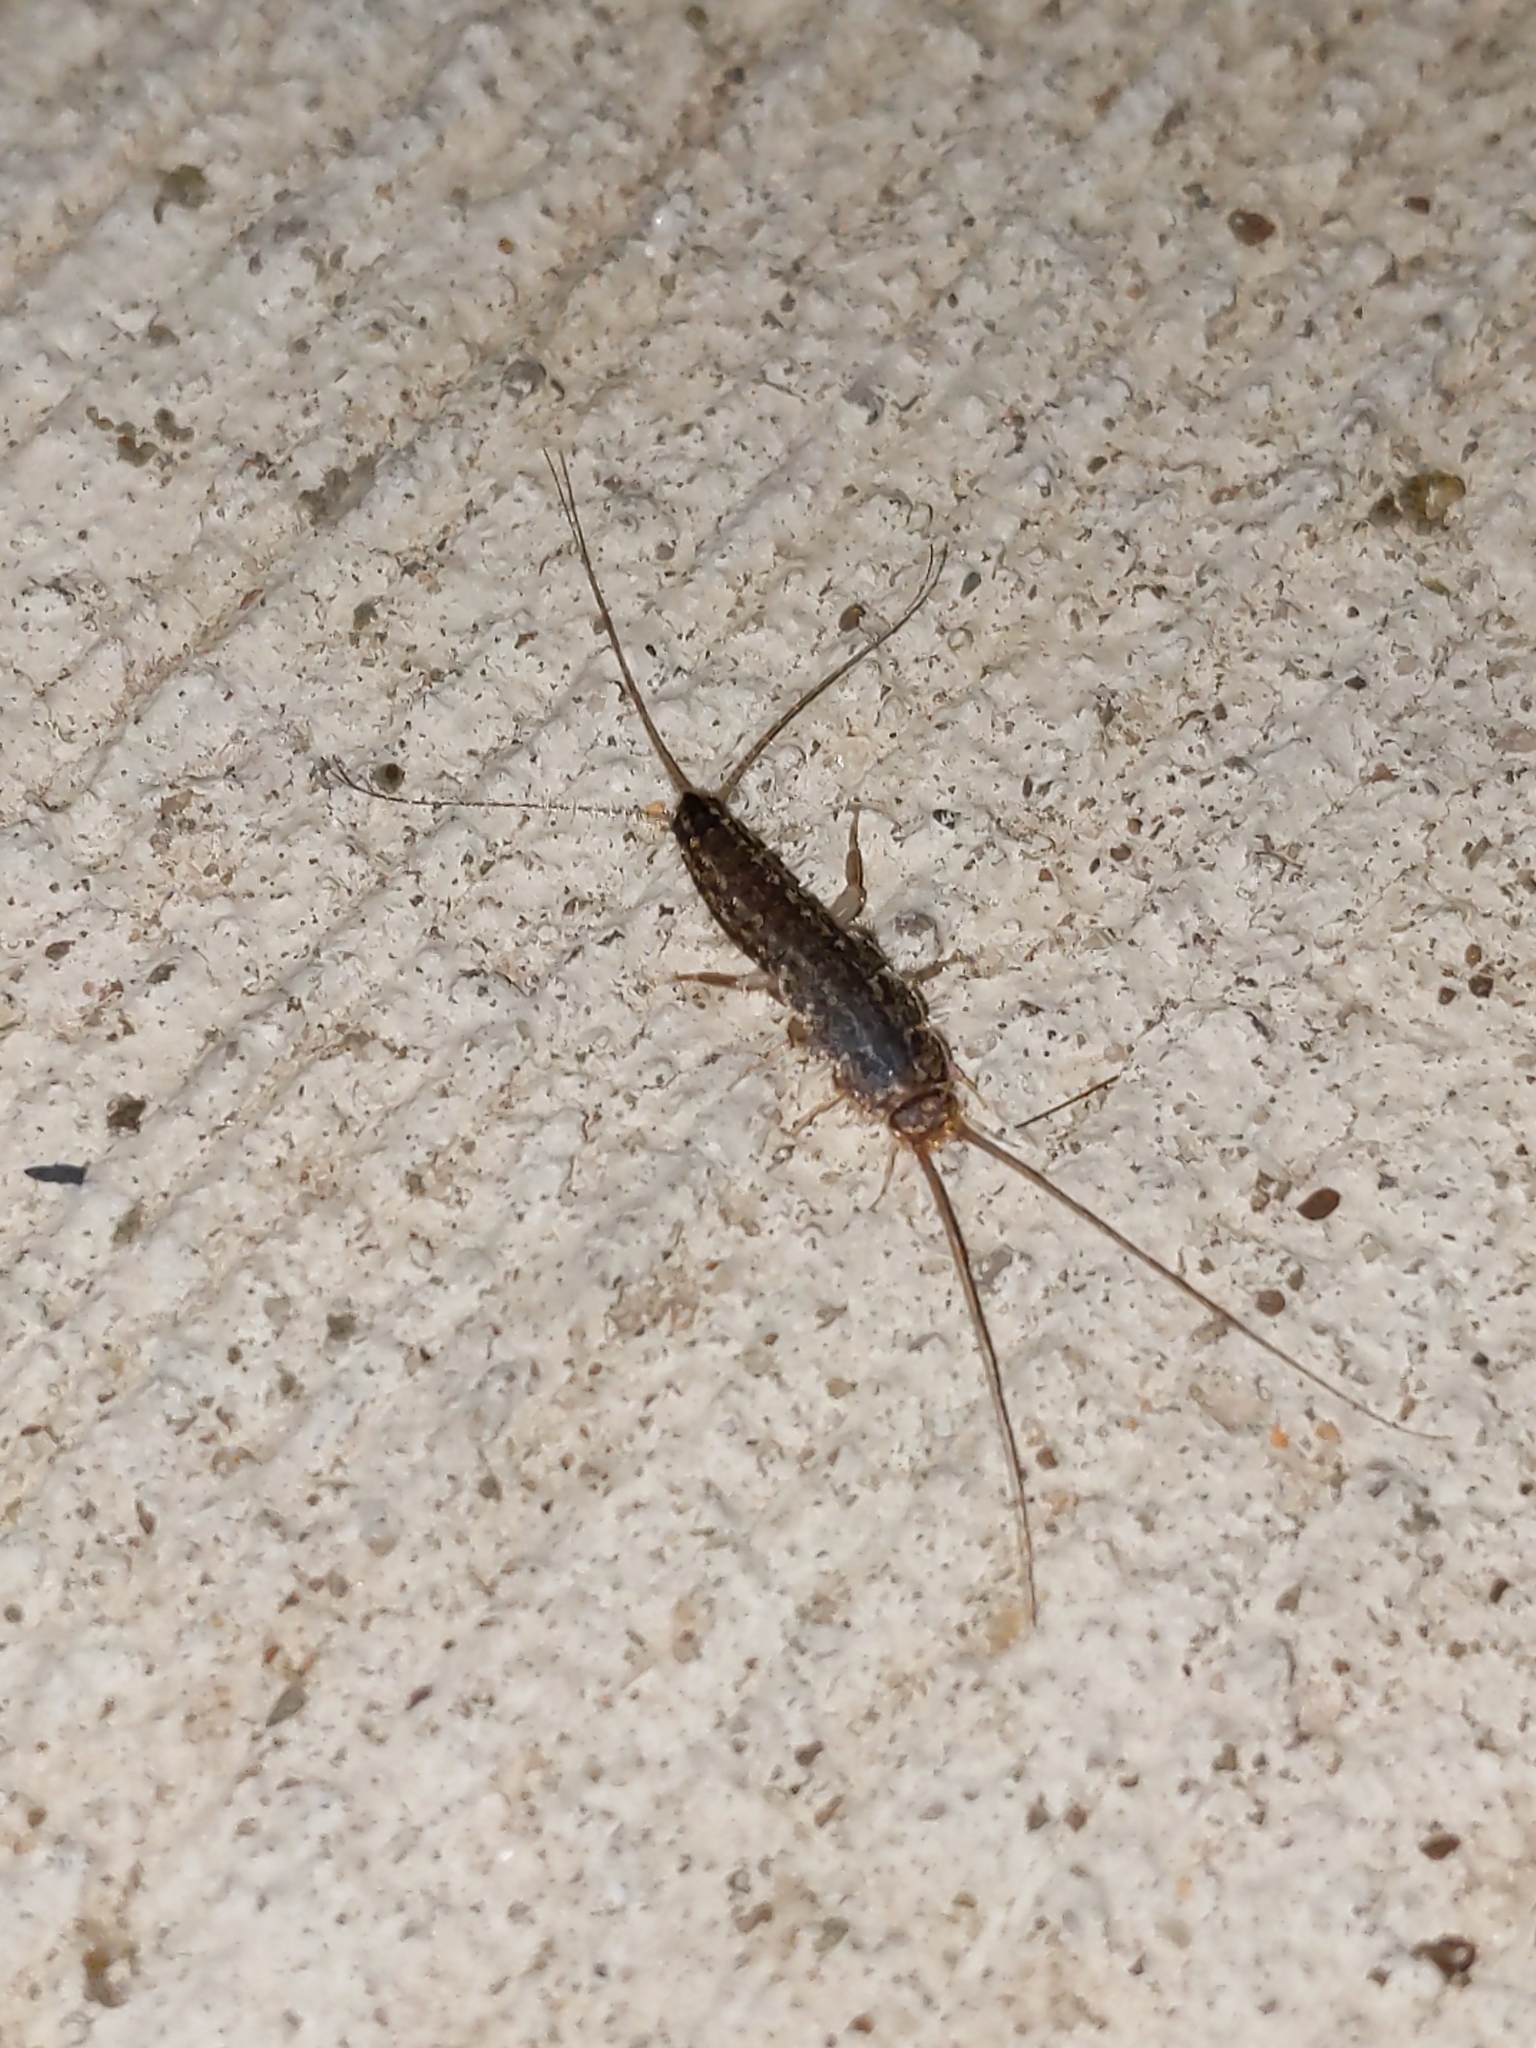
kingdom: Animalia
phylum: Arthropoda
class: Insecta
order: Zygentoma
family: Lepismatidae
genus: Ctenolepisma
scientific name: Ctenolepisma lineata
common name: Four-lined silverfish
